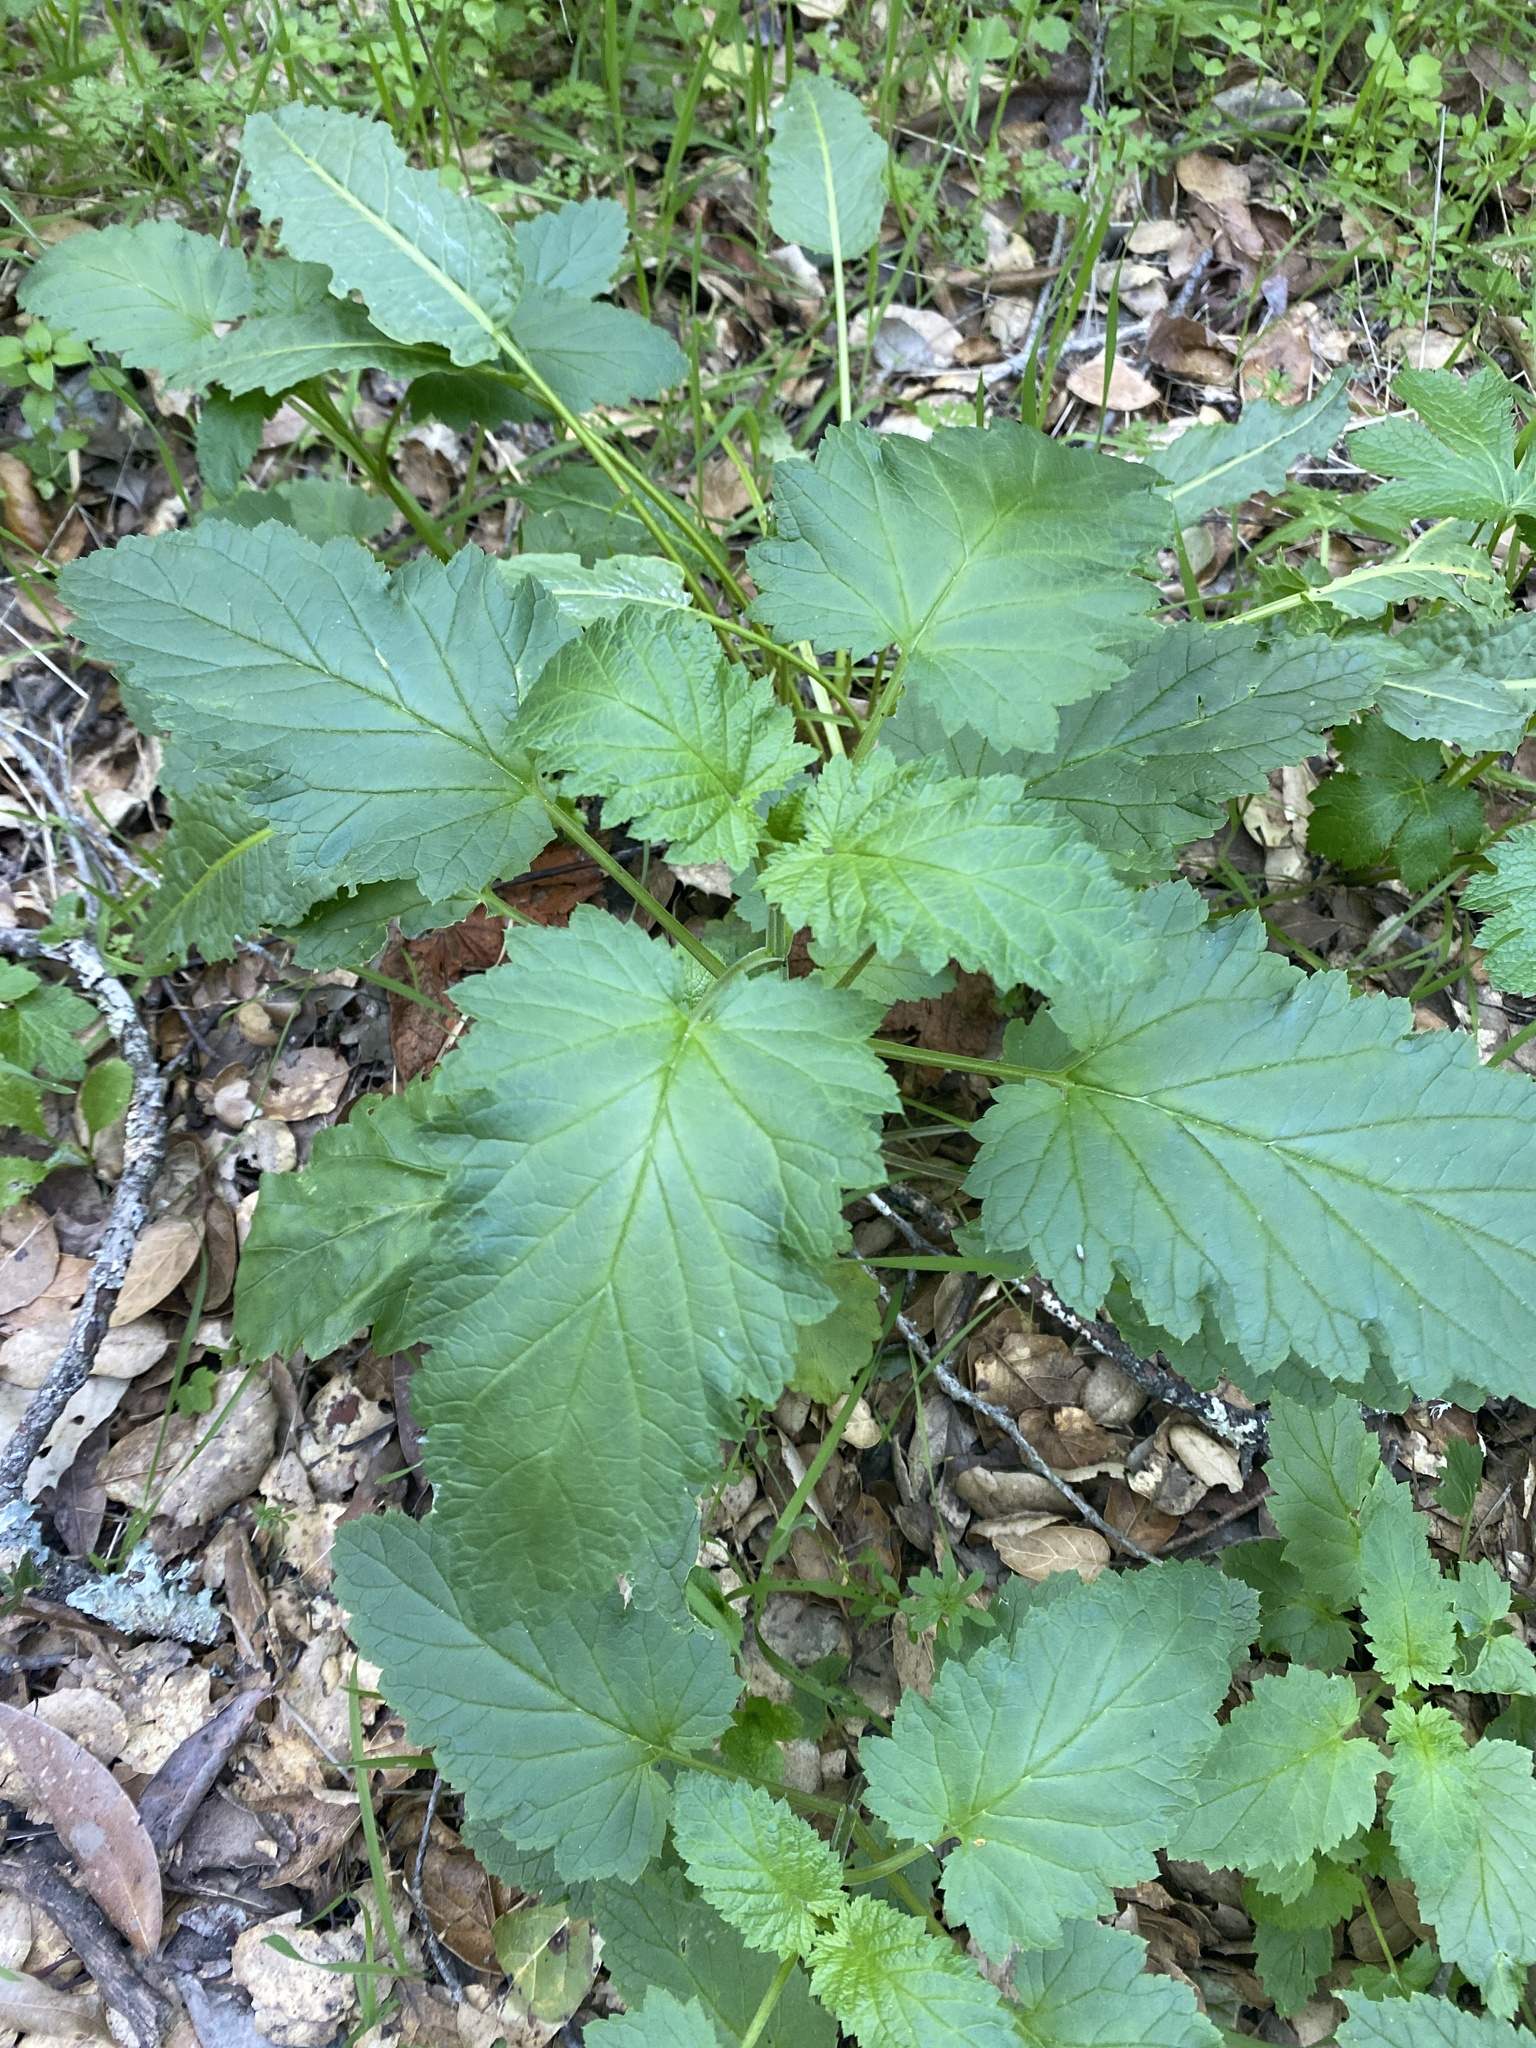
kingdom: Plantae
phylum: Tracheophyta
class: Magnoliopsida
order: Lamiales
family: Scrophulariaceae
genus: Scrophularia
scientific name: Scrophularia californica
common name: California figwort
